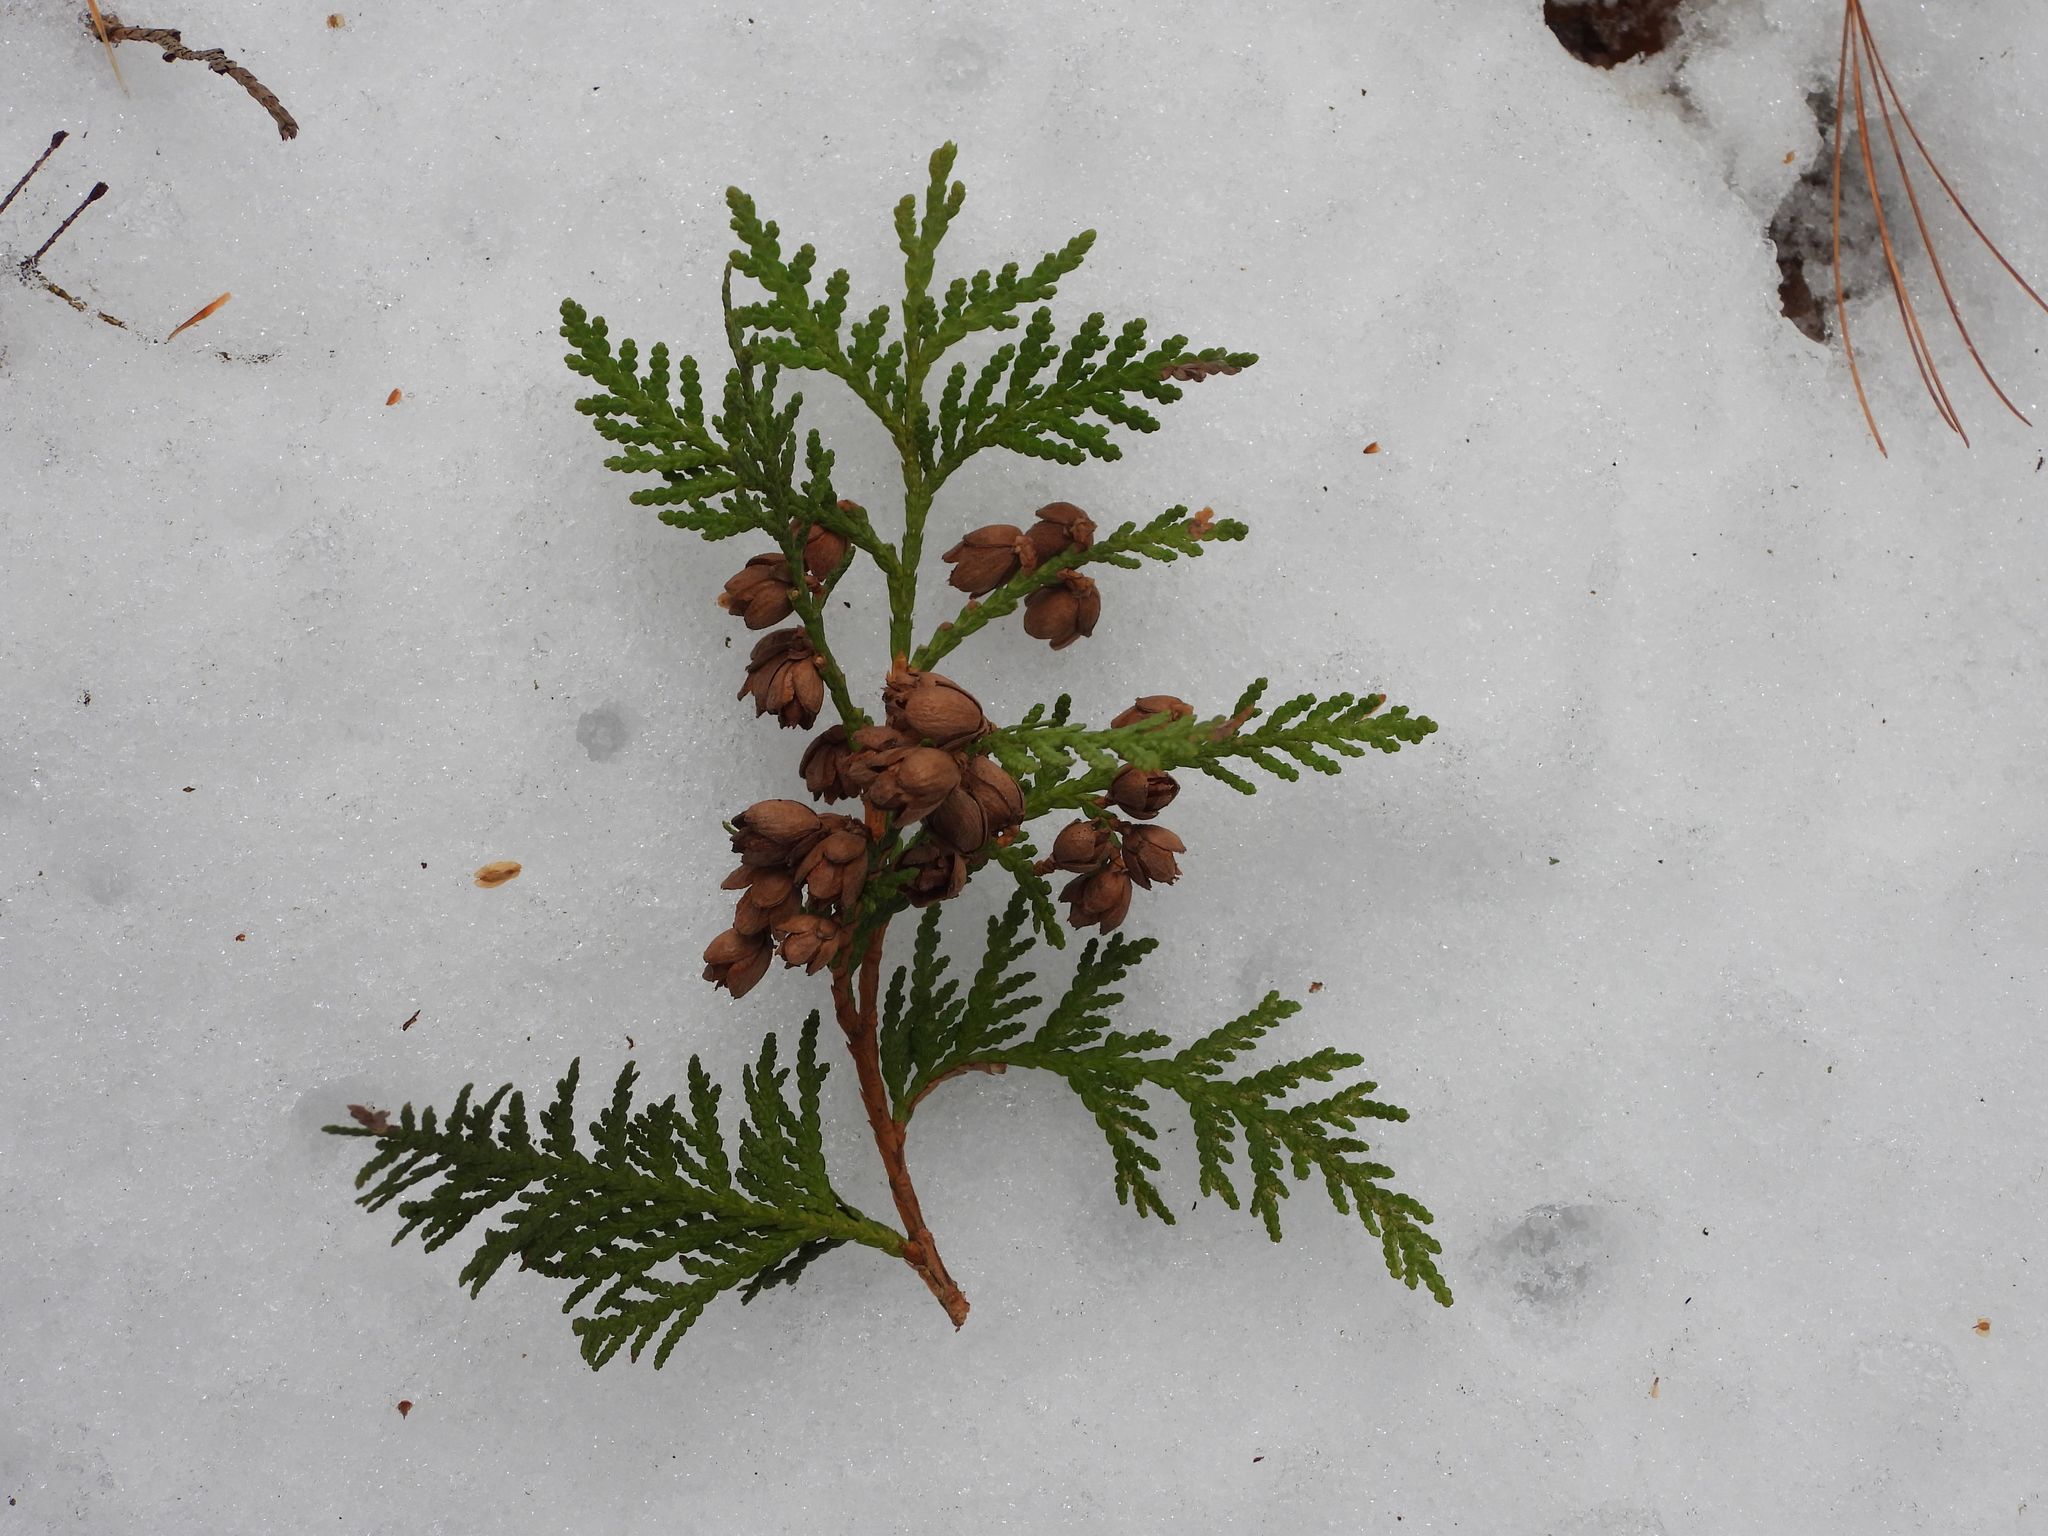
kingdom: Plantae
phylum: Tracheophyta
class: Pinopsida
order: Pinales
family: Cupressaceae
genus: Thuja
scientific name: Thuja occidentalis
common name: Northern white-cedar
